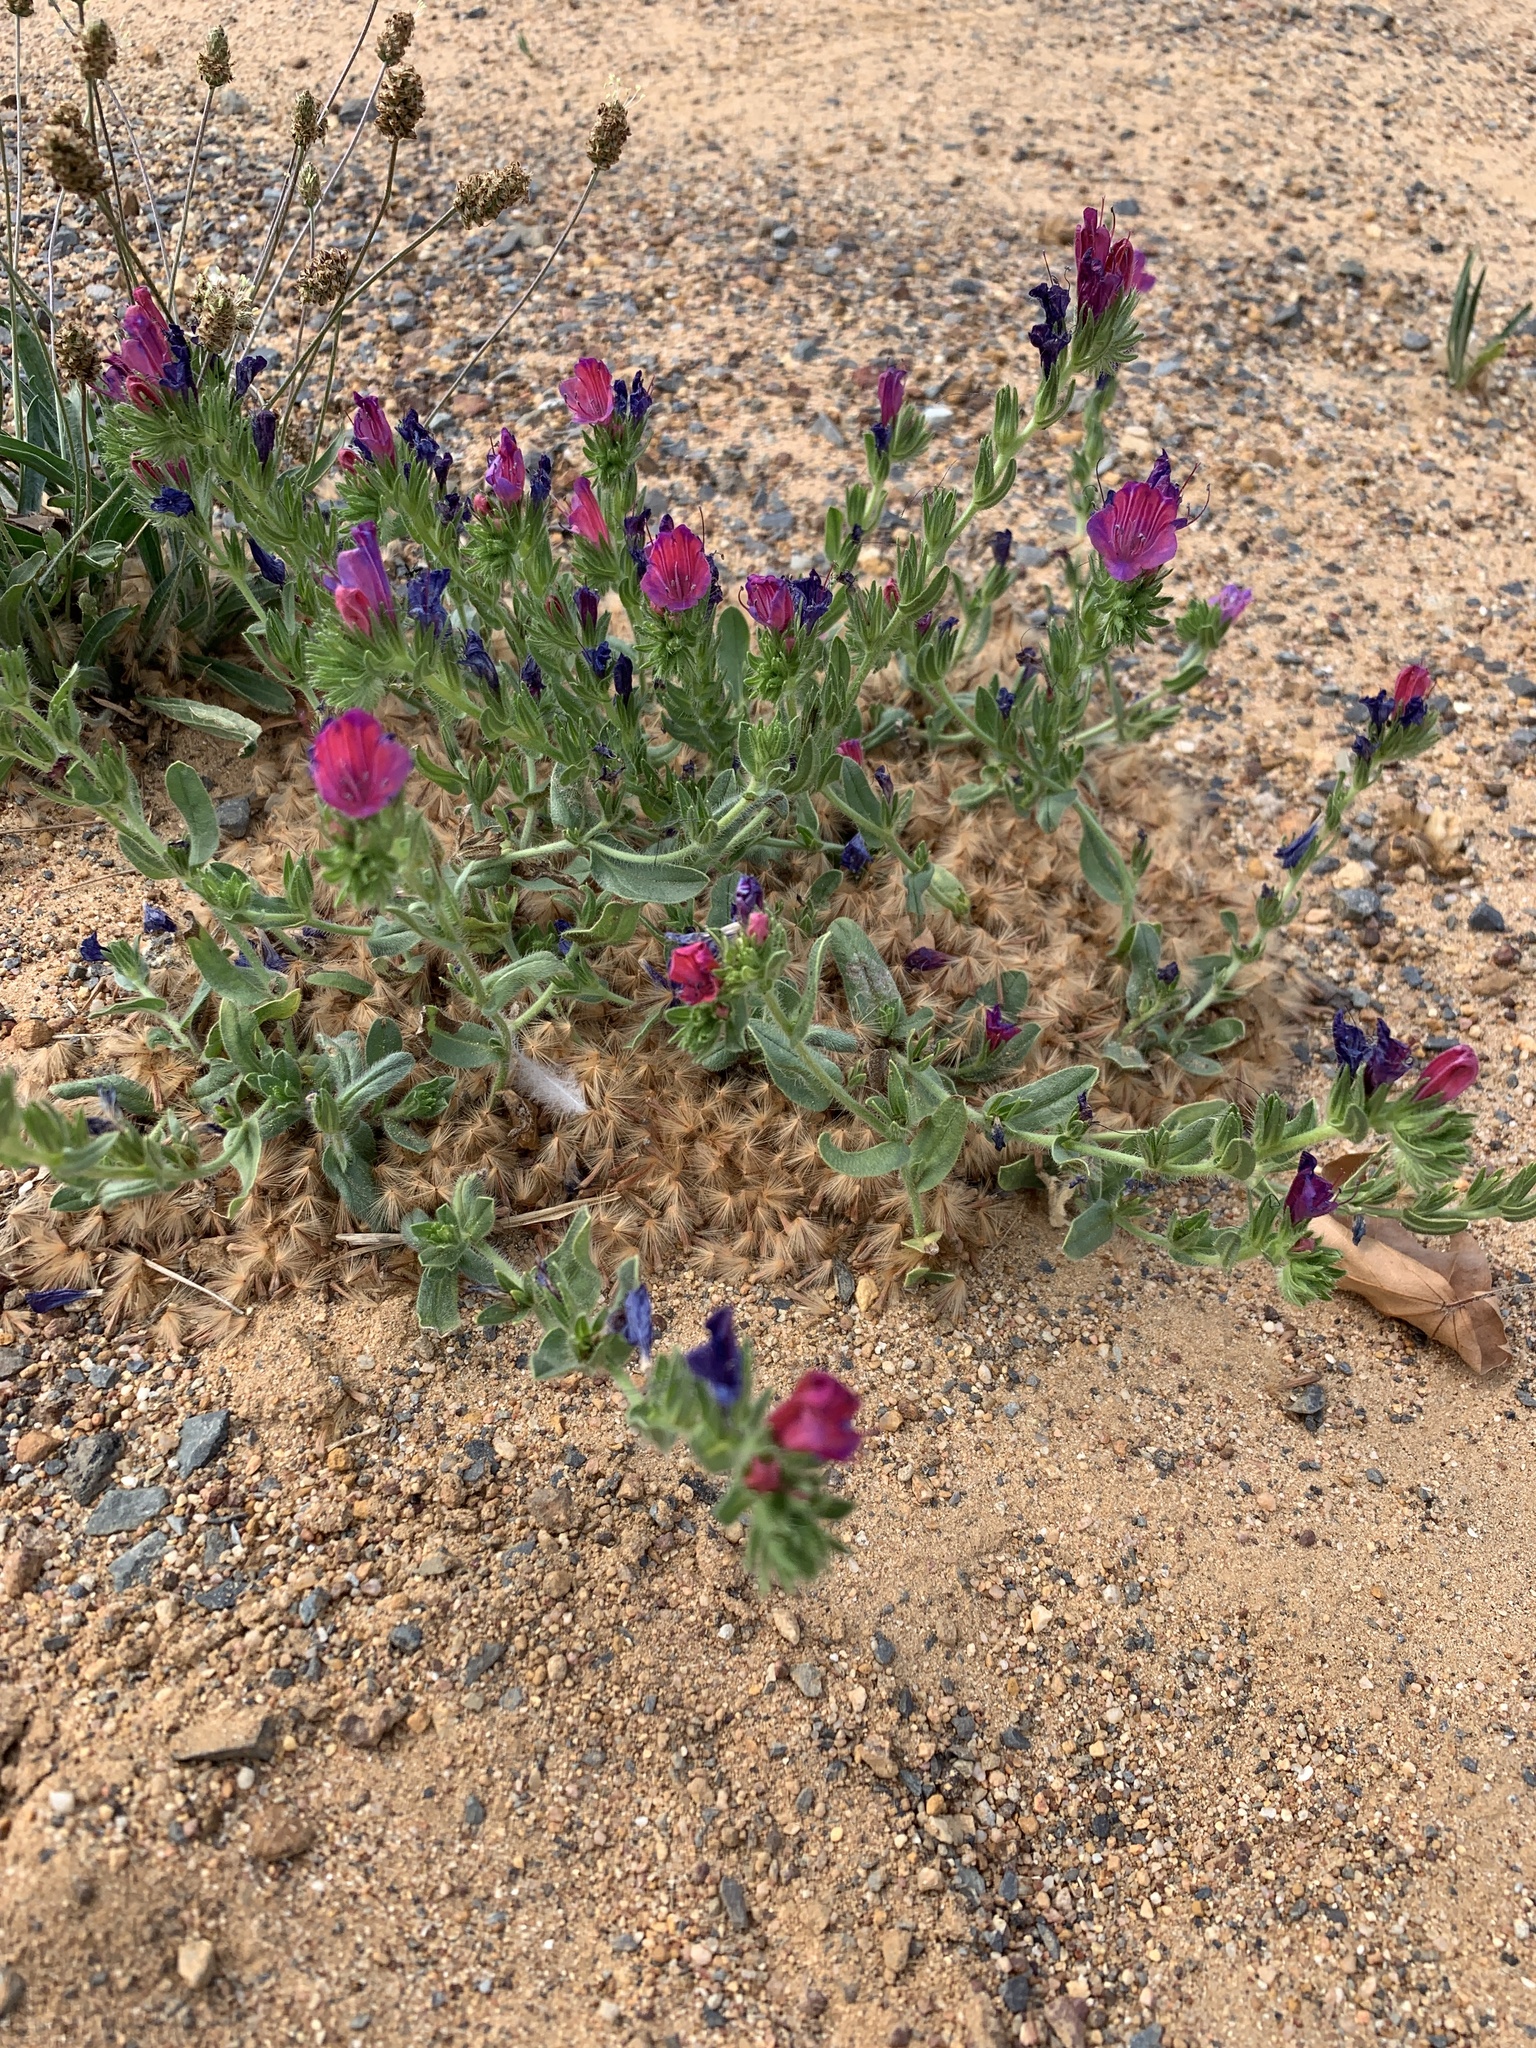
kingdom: Plantae
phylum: Tracheophyta
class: Magnoliopsida
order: Boraginales
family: Boraginaceae
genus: Echium
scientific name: Echium plantagineum
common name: Purple viper's-bugloss
